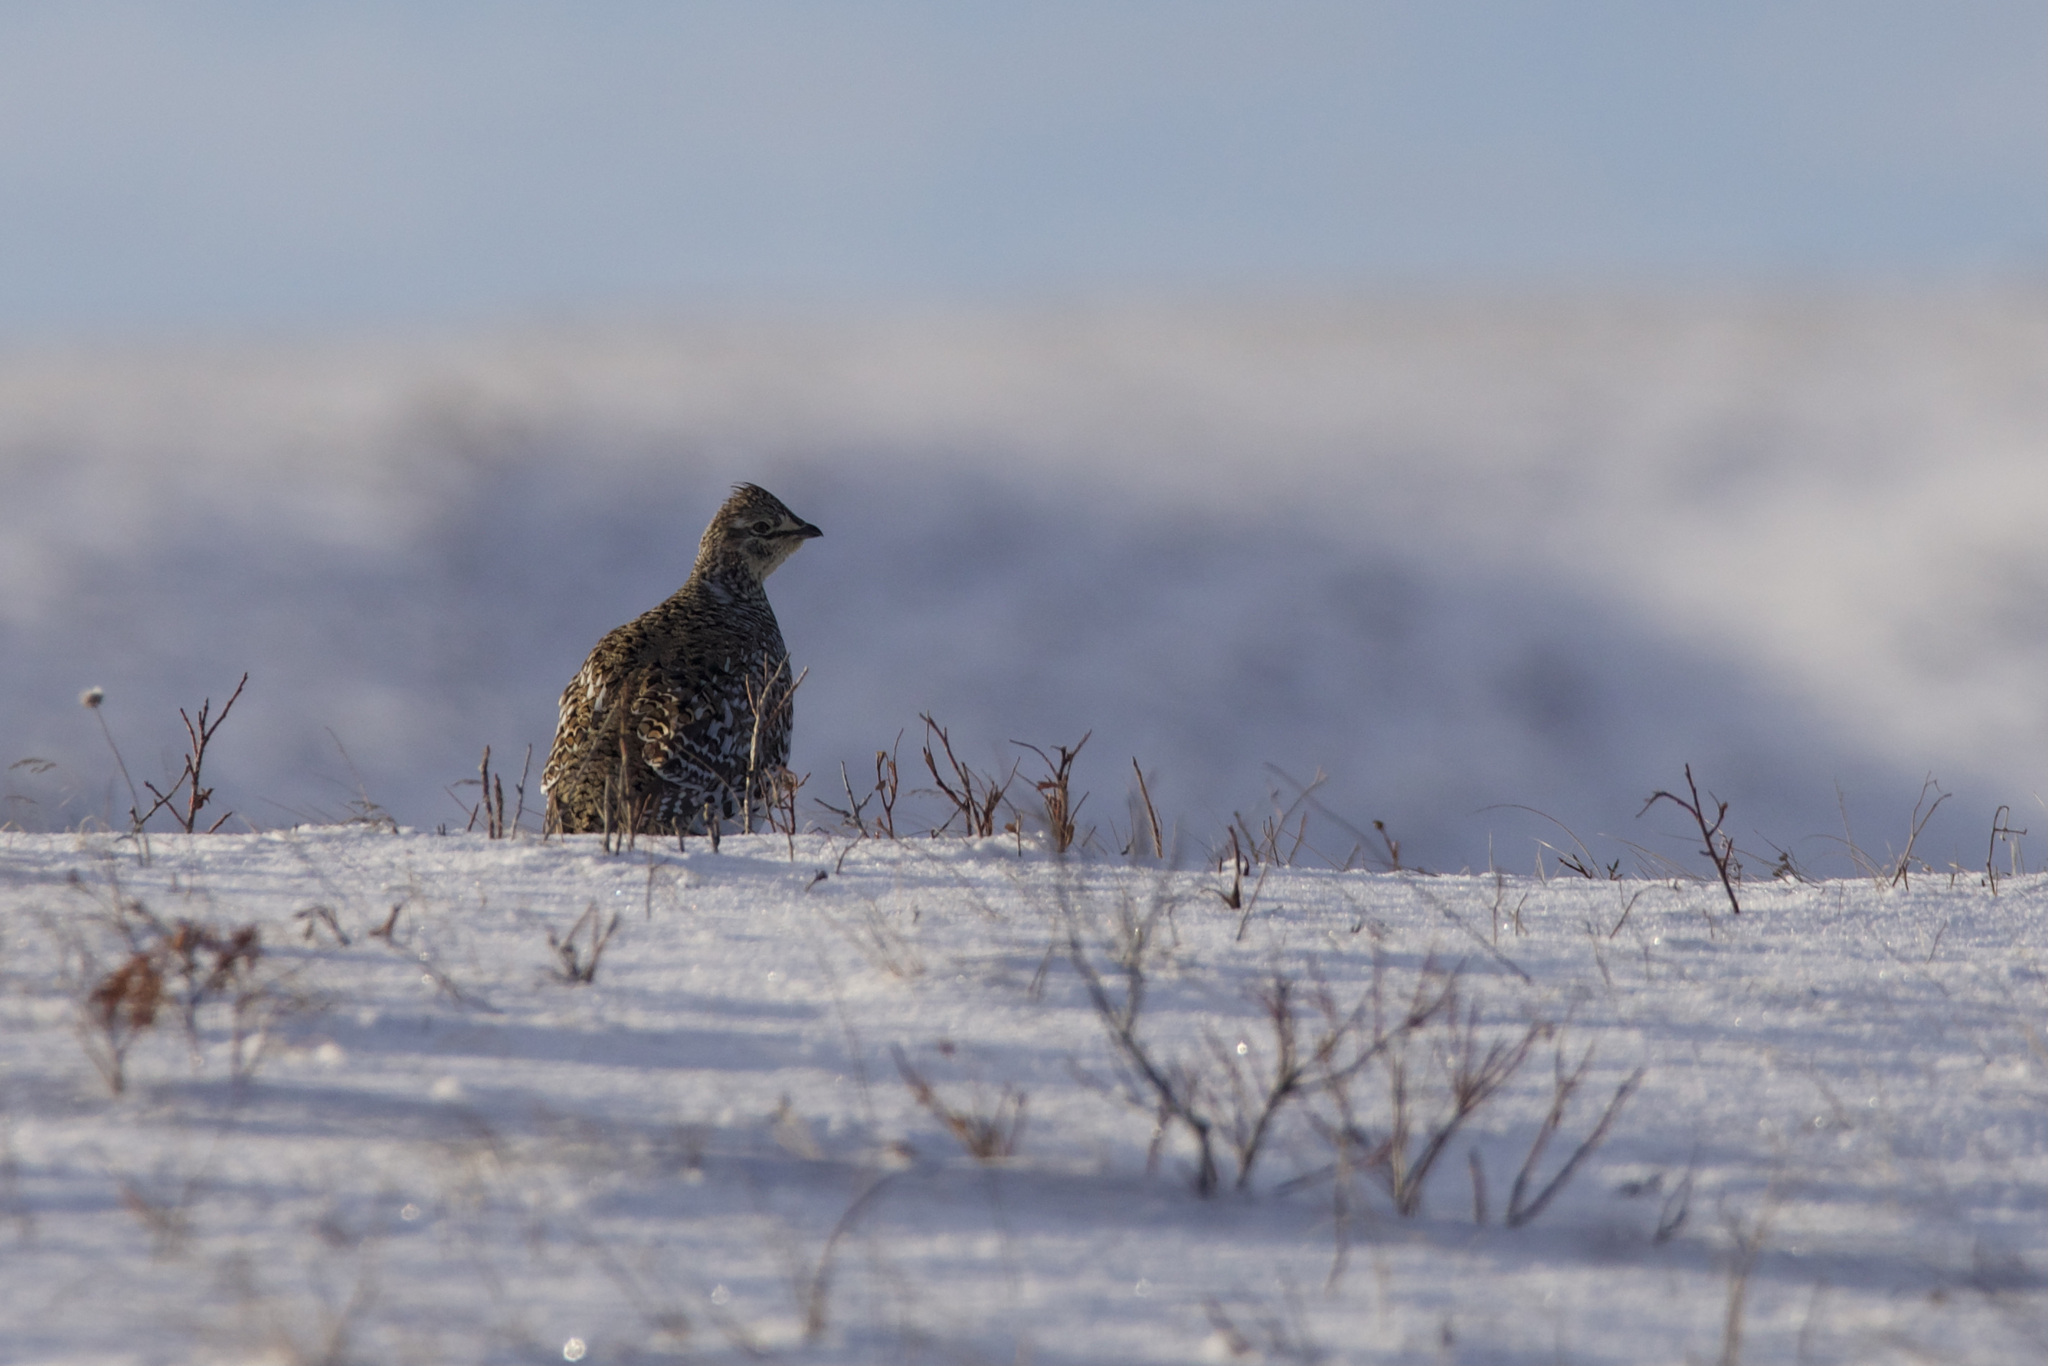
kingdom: Animalia
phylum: Chordata
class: Aves
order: Galliformes
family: Phasianidae
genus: Tympanuchus
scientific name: Tympanuchus phasianellus
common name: Sharp-tailed grouse
